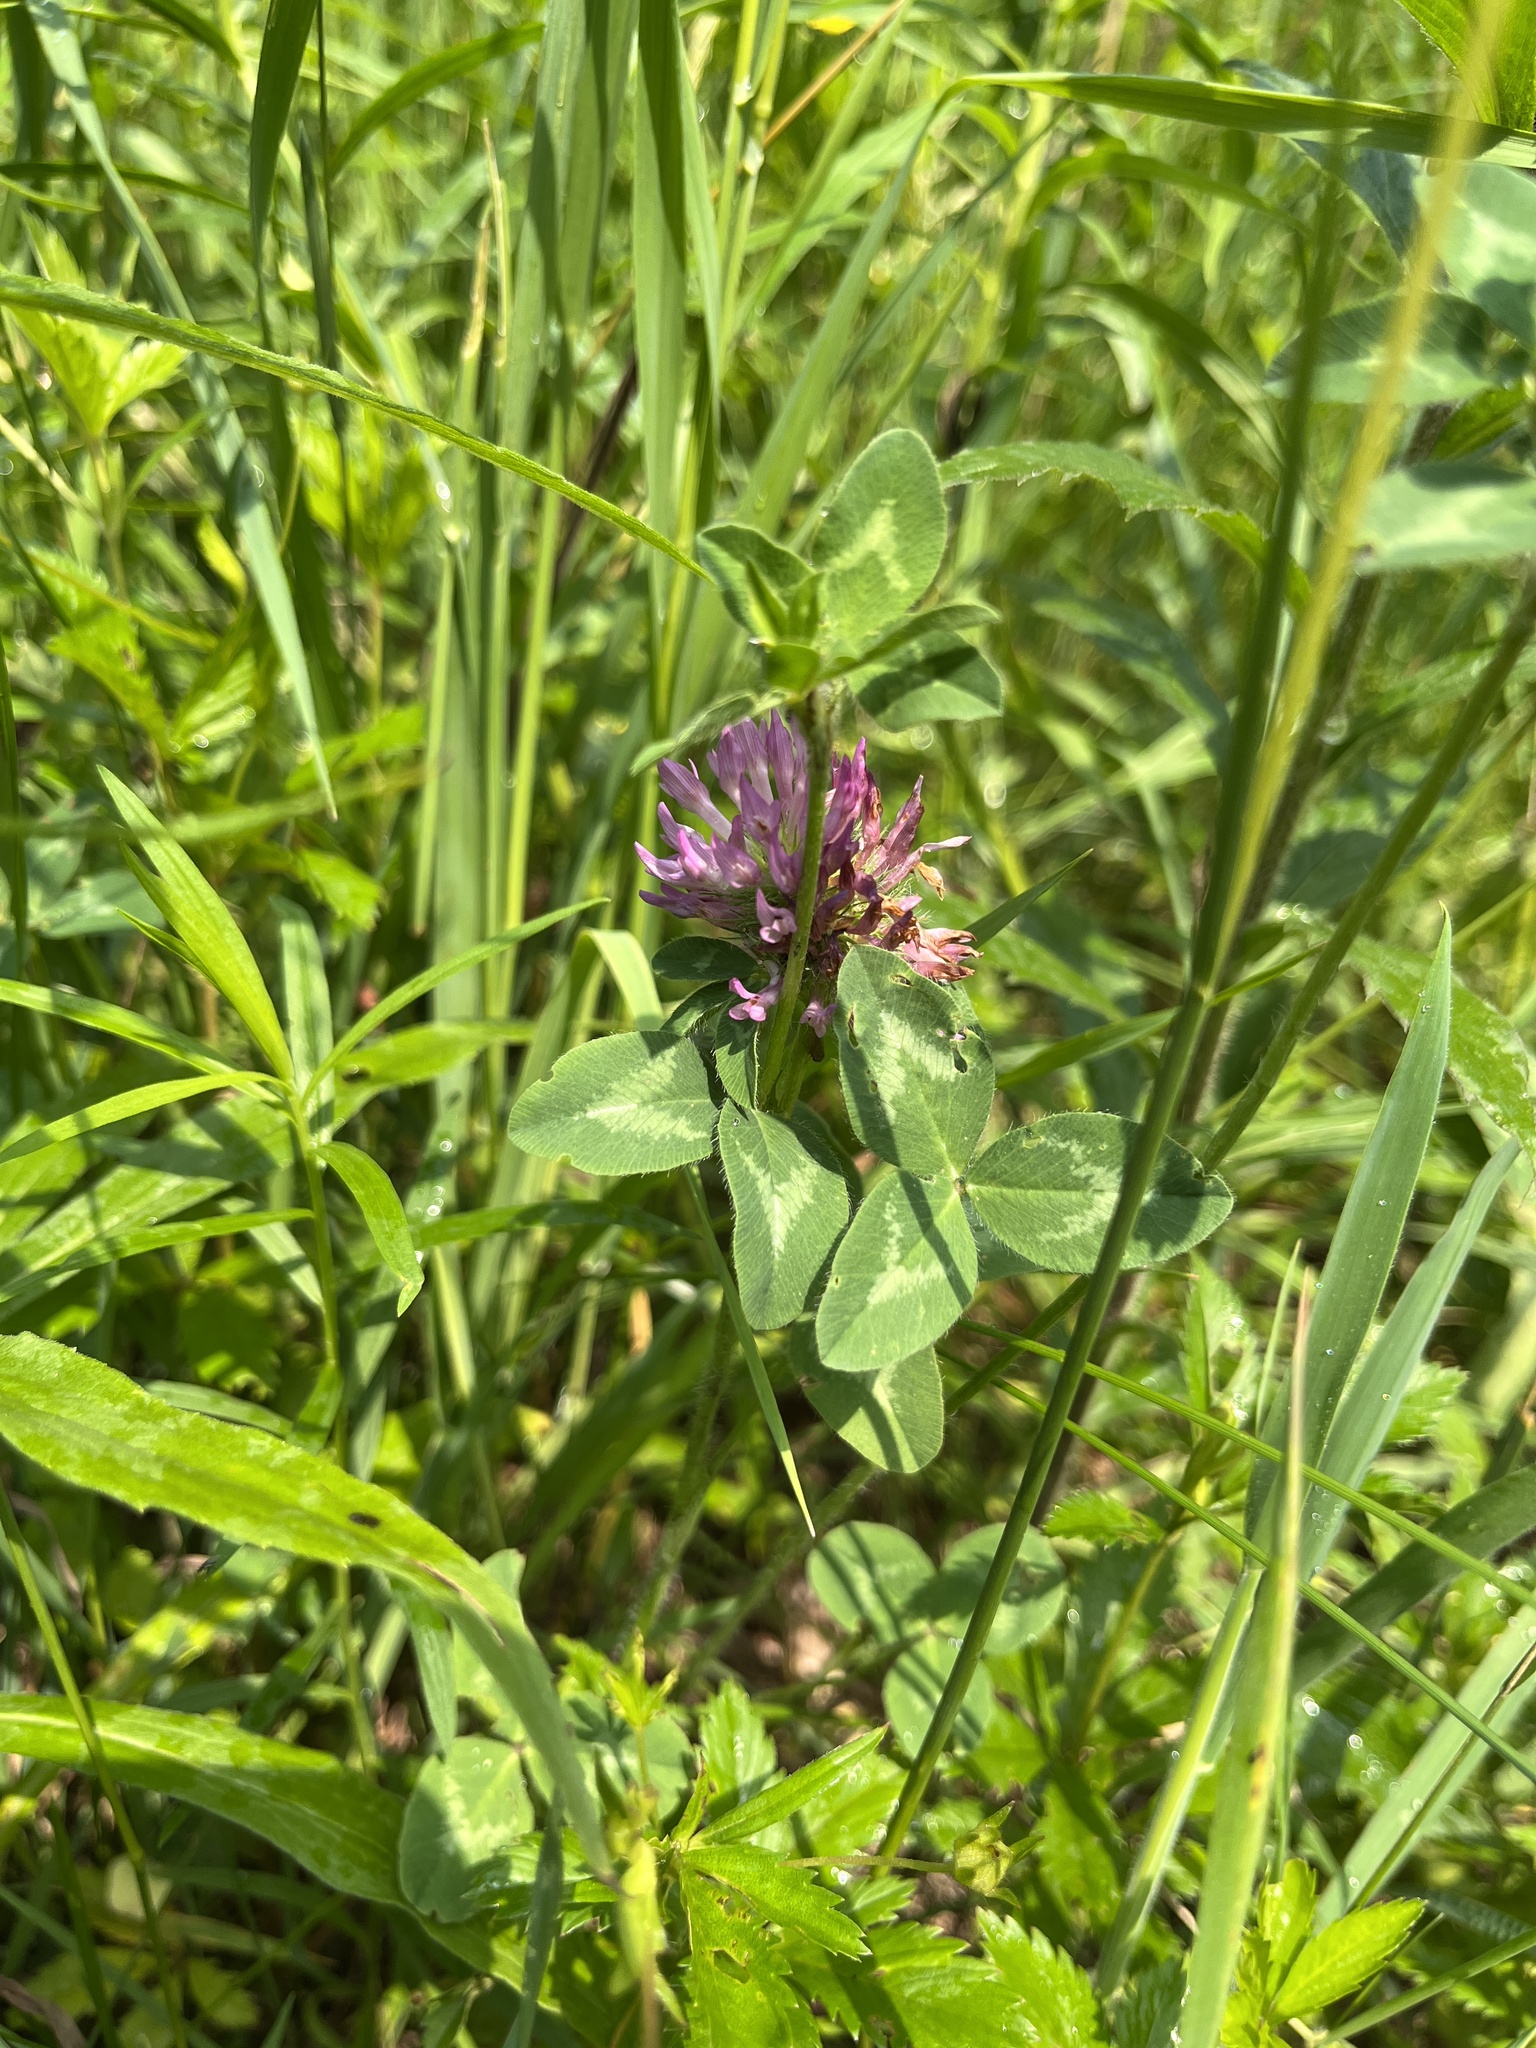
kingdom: Plantae
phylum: Tracheophyta
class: Magnoliopsida
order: Fabales
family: Fabaceae
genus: Trifolium
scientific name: Trifolium pratense
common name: Red clover
